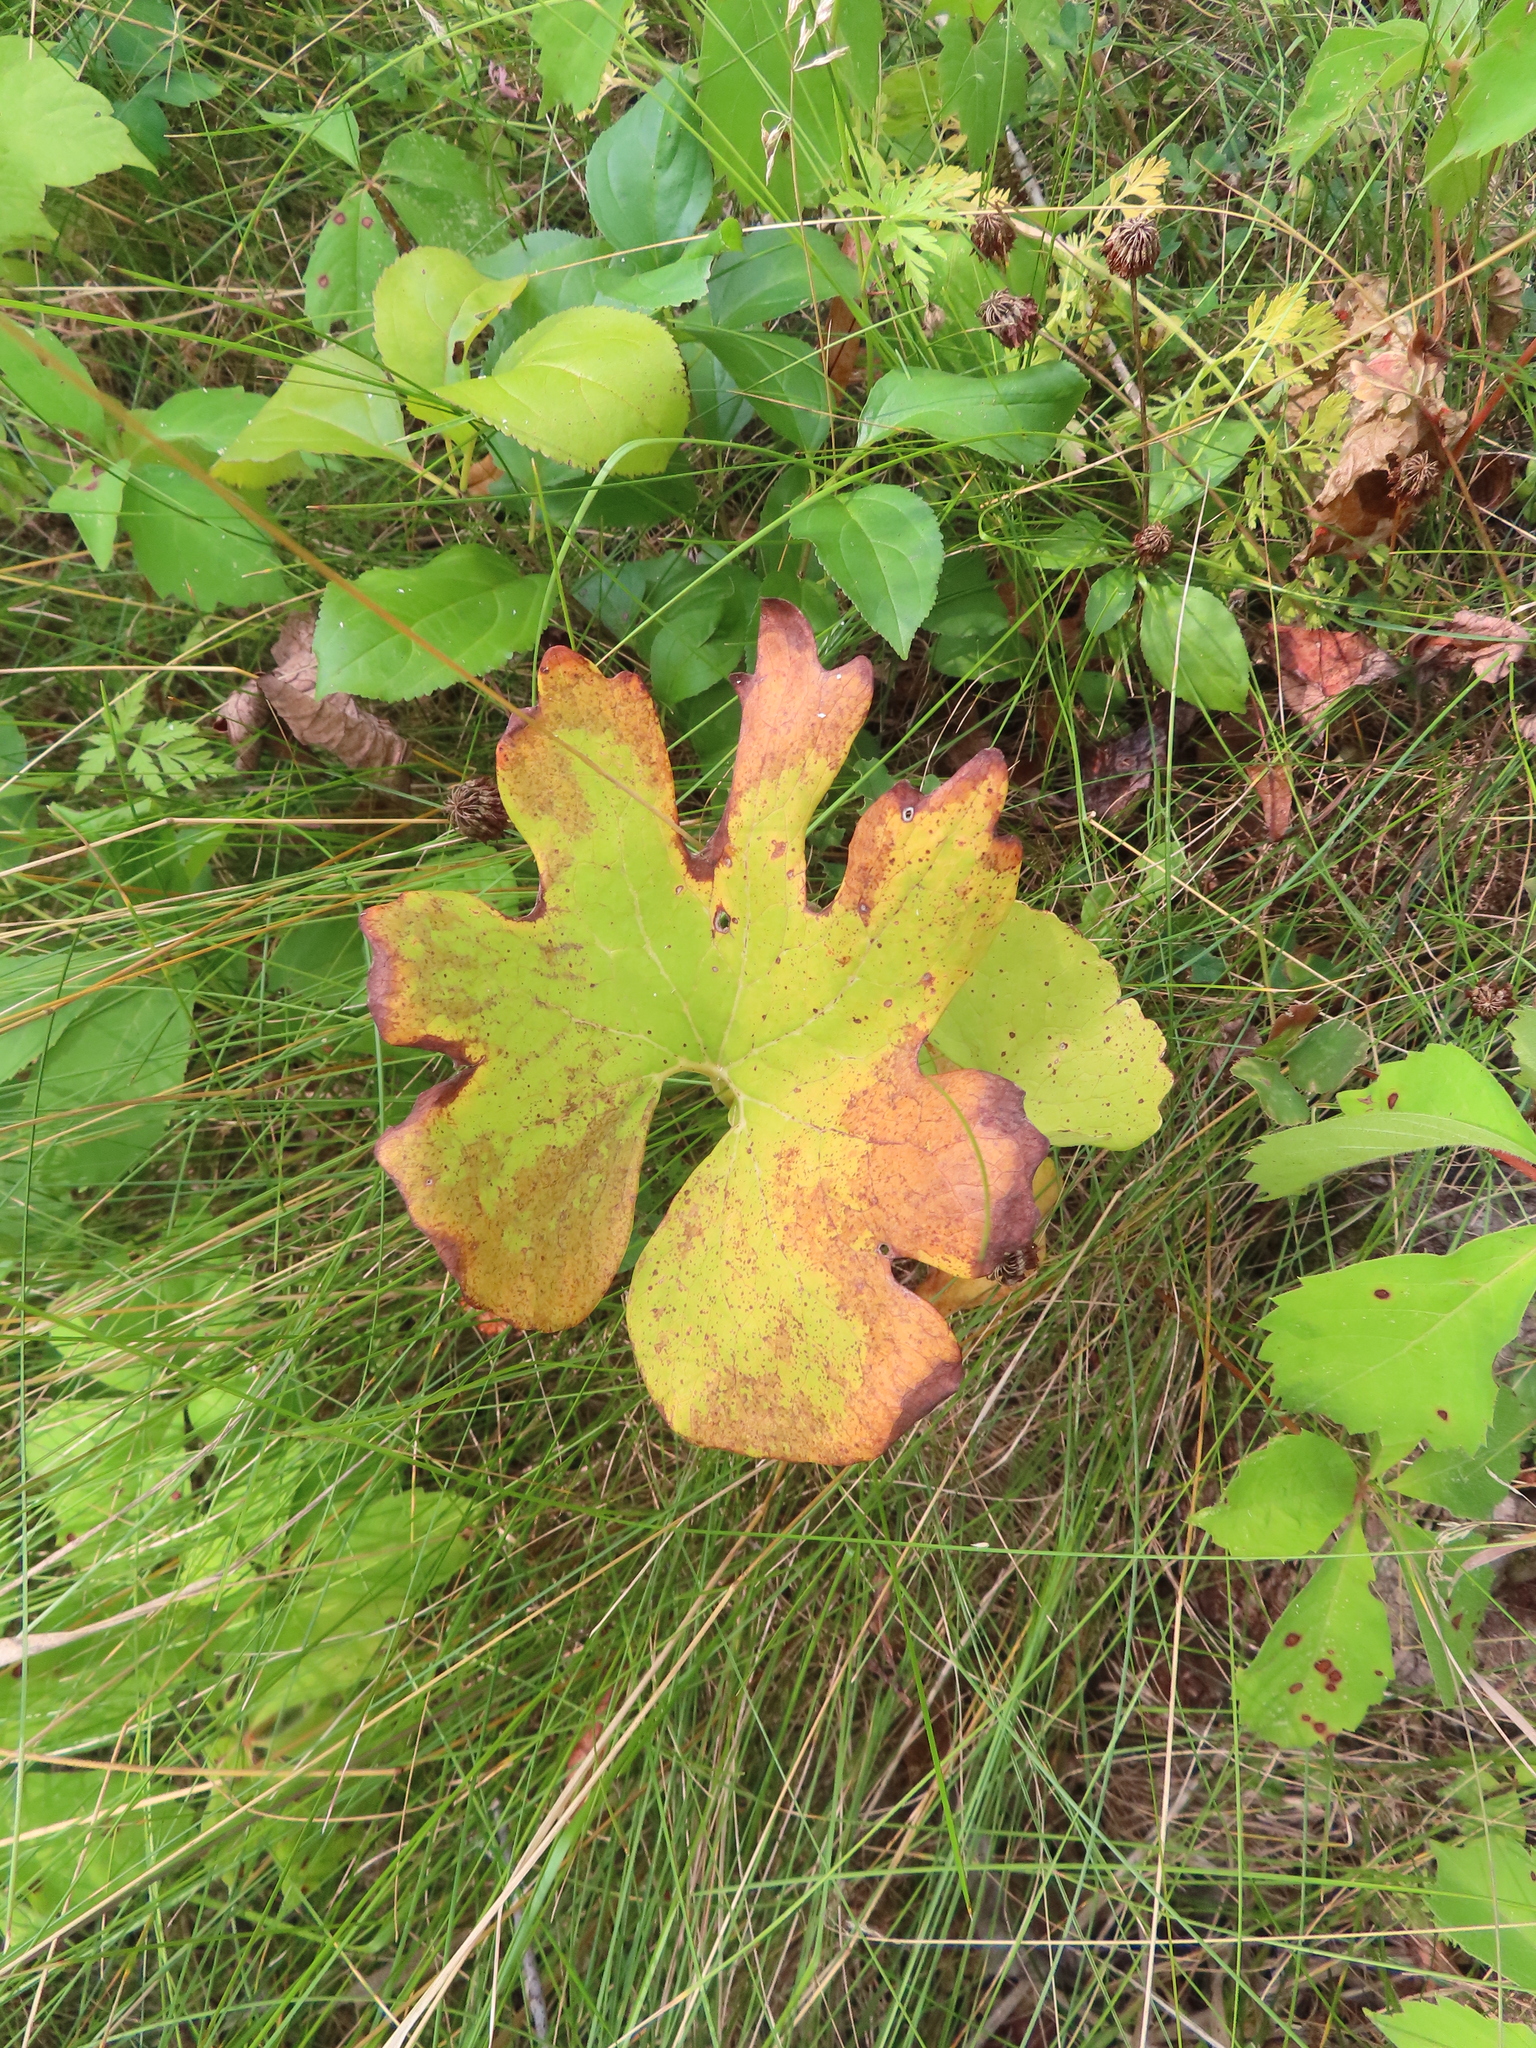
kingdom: Plantae
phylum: Tracheophyta
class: Magnoliopsida
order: Ranunculales
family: Papaveraceae
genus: Sanguinaria
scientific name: Sanguinaria canadensis
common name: Bloodroot
